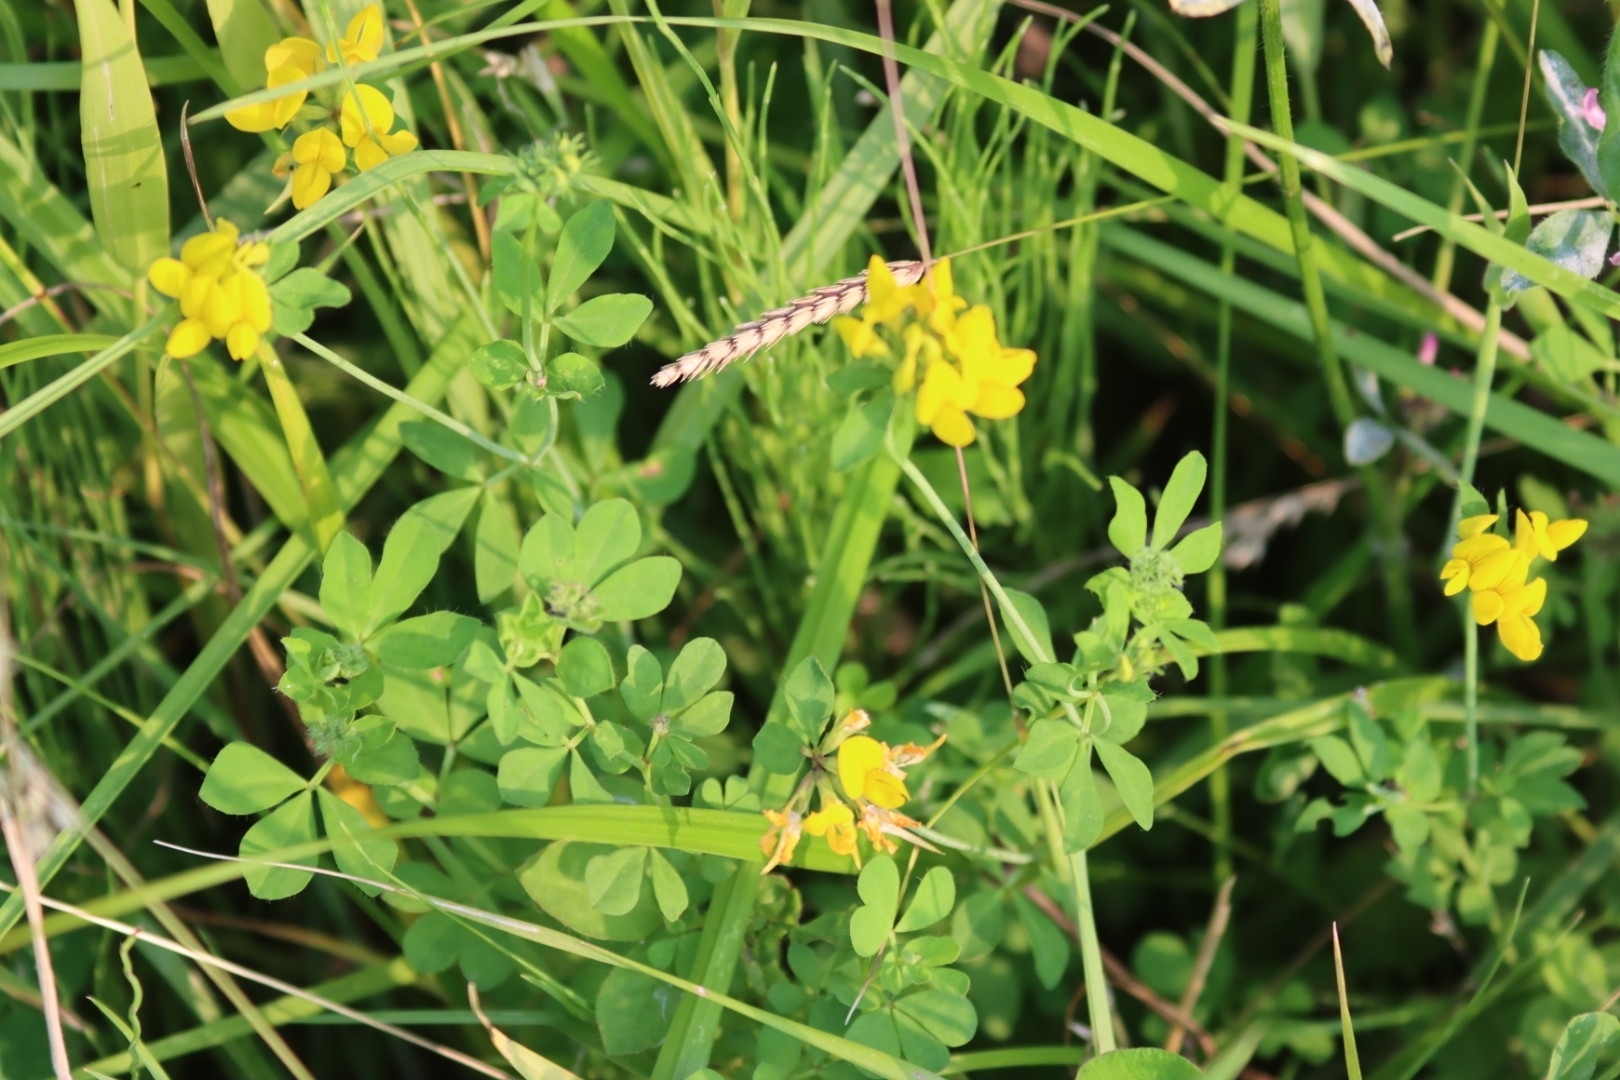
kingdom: Plantae
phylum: Tracheophyta
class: Magnoliopsida
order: Fabales
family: Fabaceae
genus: Lotus
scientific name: Lotus pedunculatus
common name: Greater birdsfoot-trefoil
